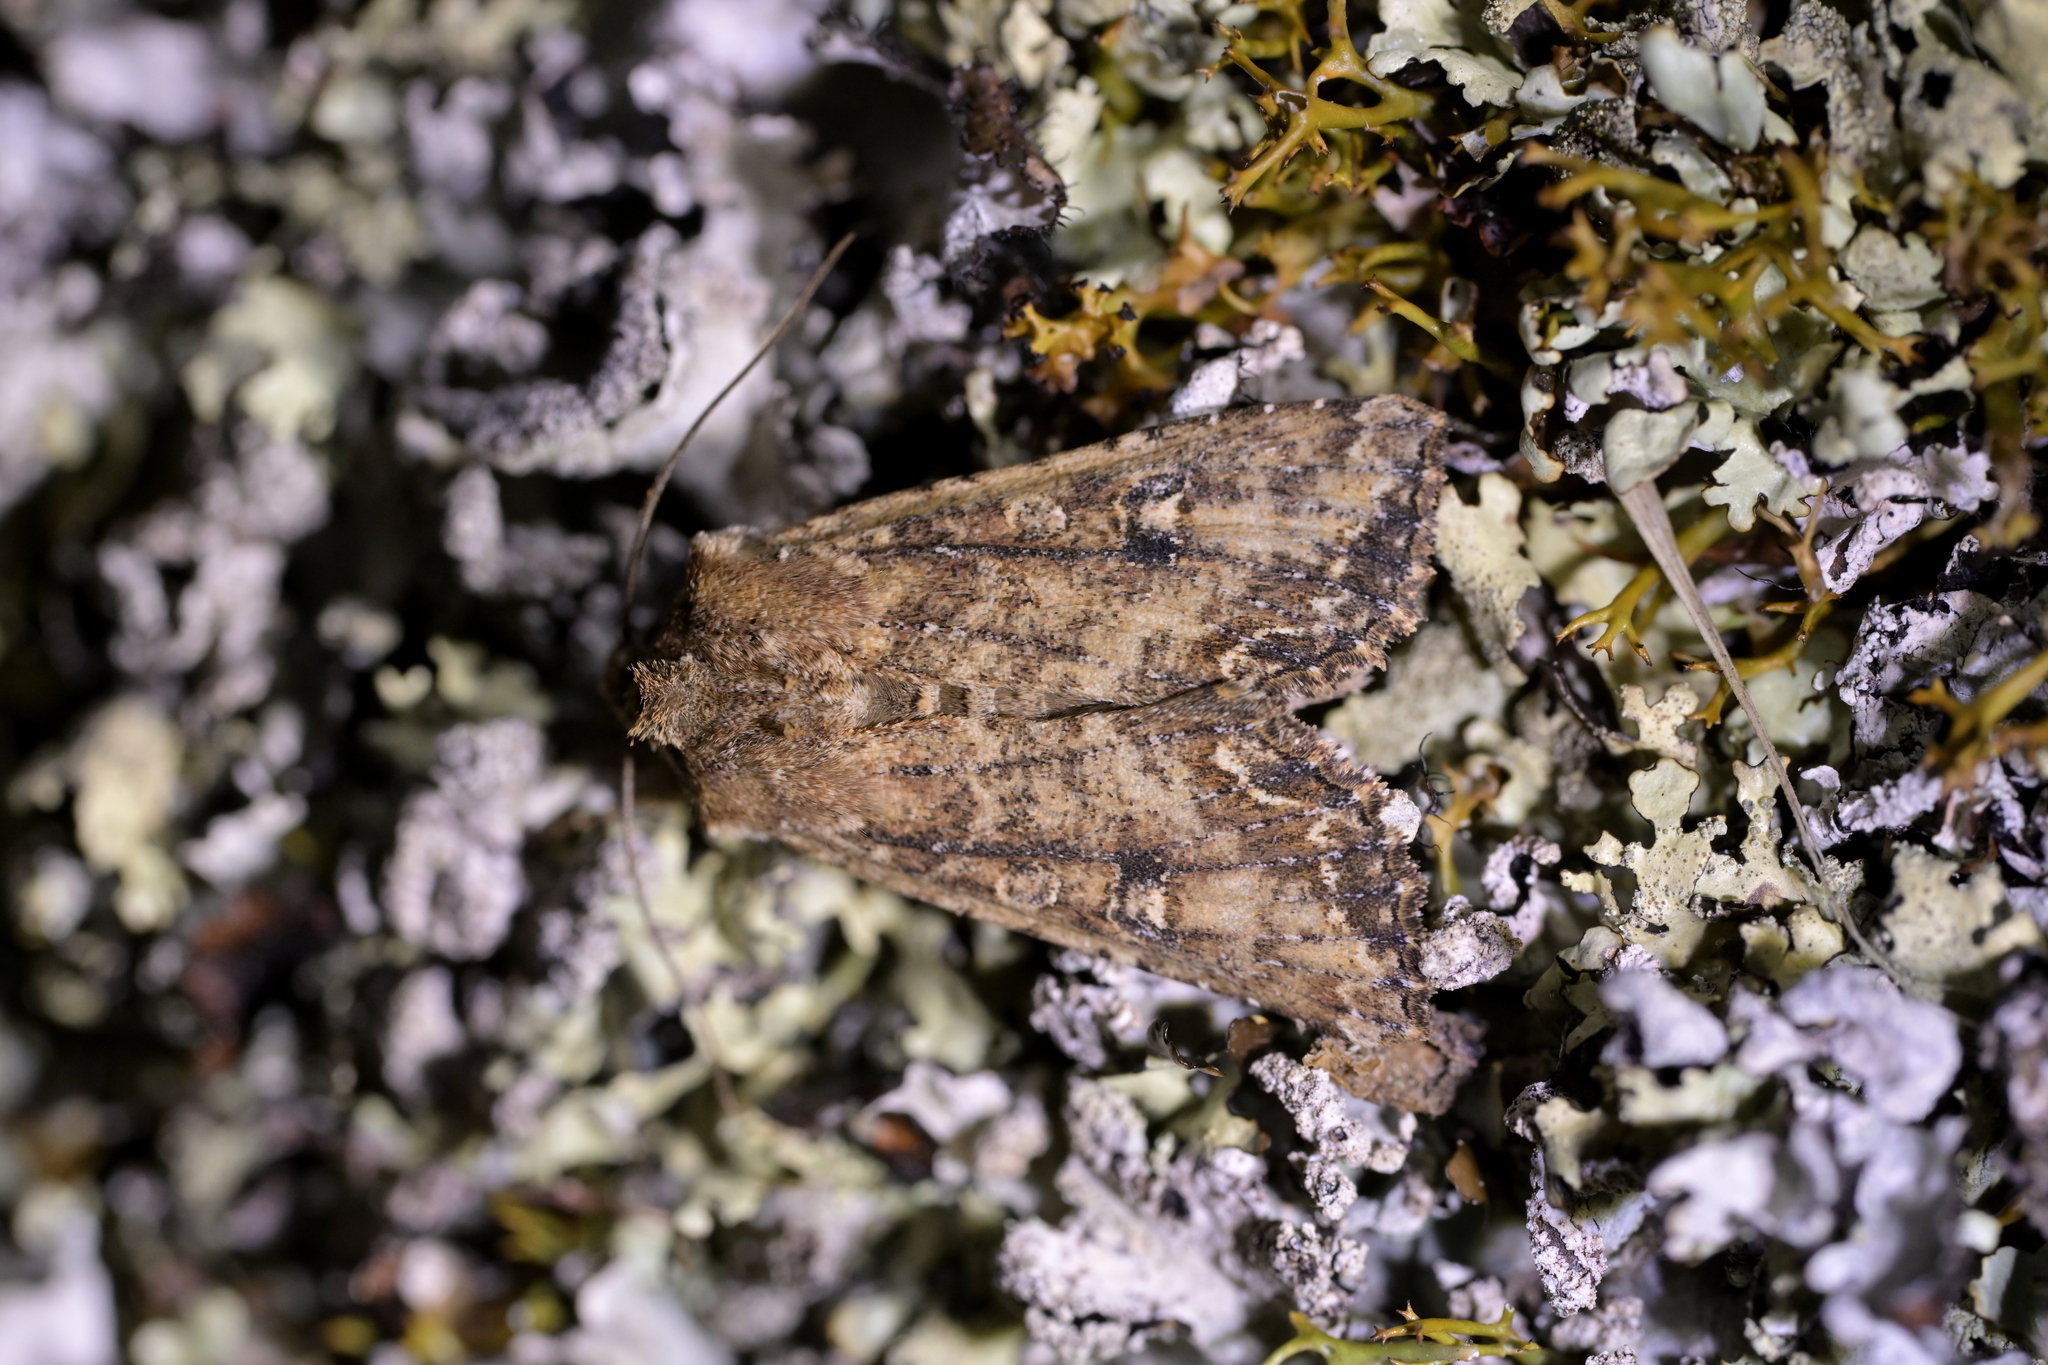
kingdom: Animalia
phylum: Arthropoda
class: Insecta
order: Lepidoptera
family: Noctuidae
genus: Ichneutica
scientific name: Ichneutica morosa
